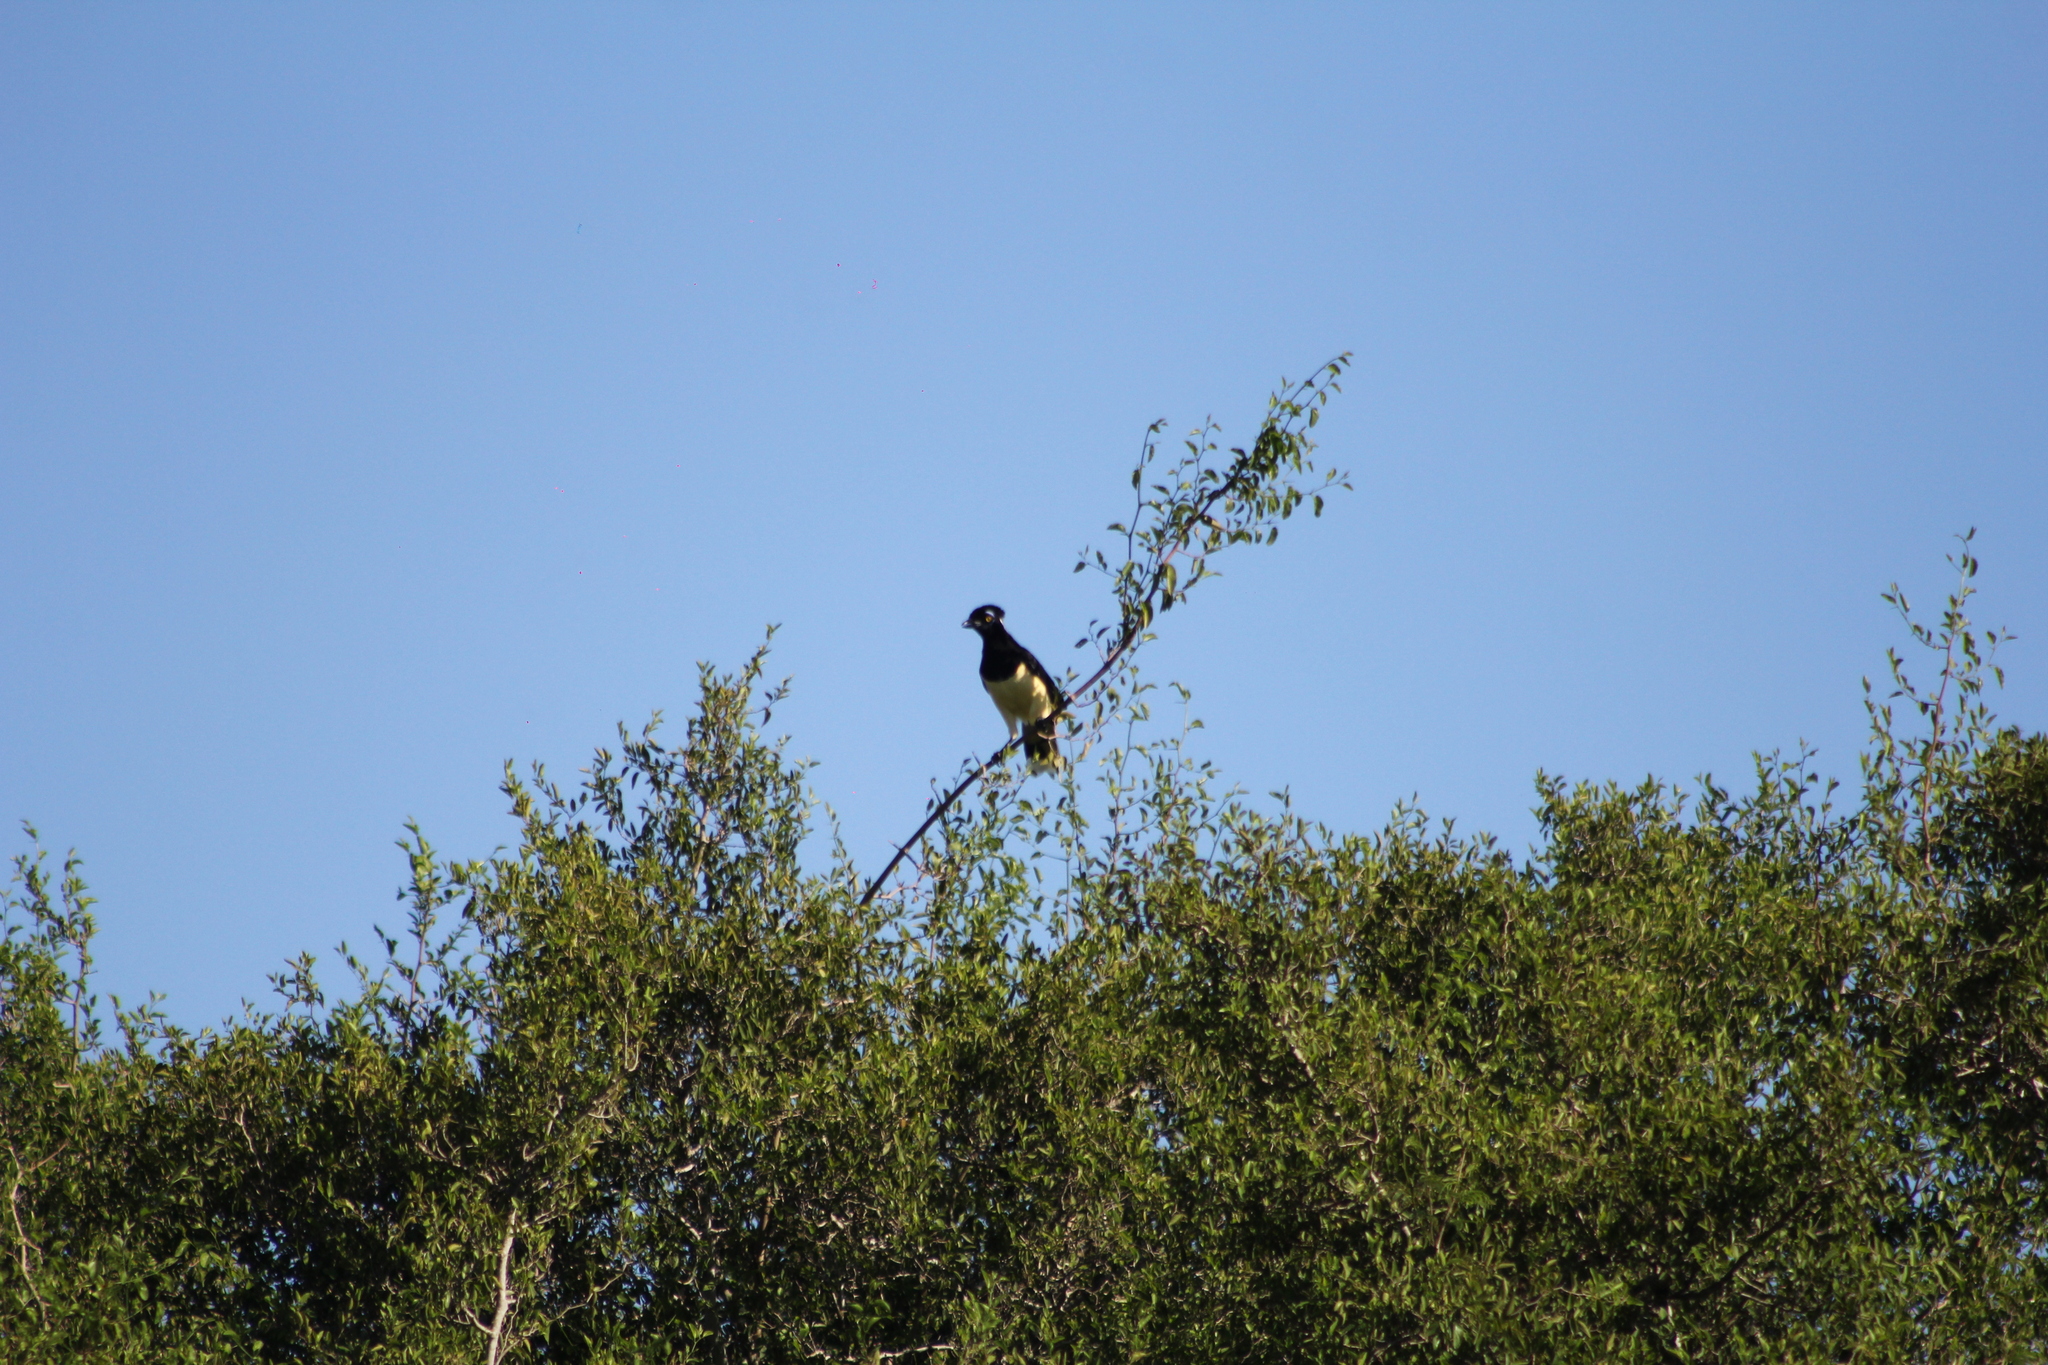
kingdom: Animalia
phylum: Chordata
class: Aves
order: Passeriformes
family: Corvidae
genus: Cyanocorax
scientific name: Cyanocorax chrysops
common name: Plush-crested jay
